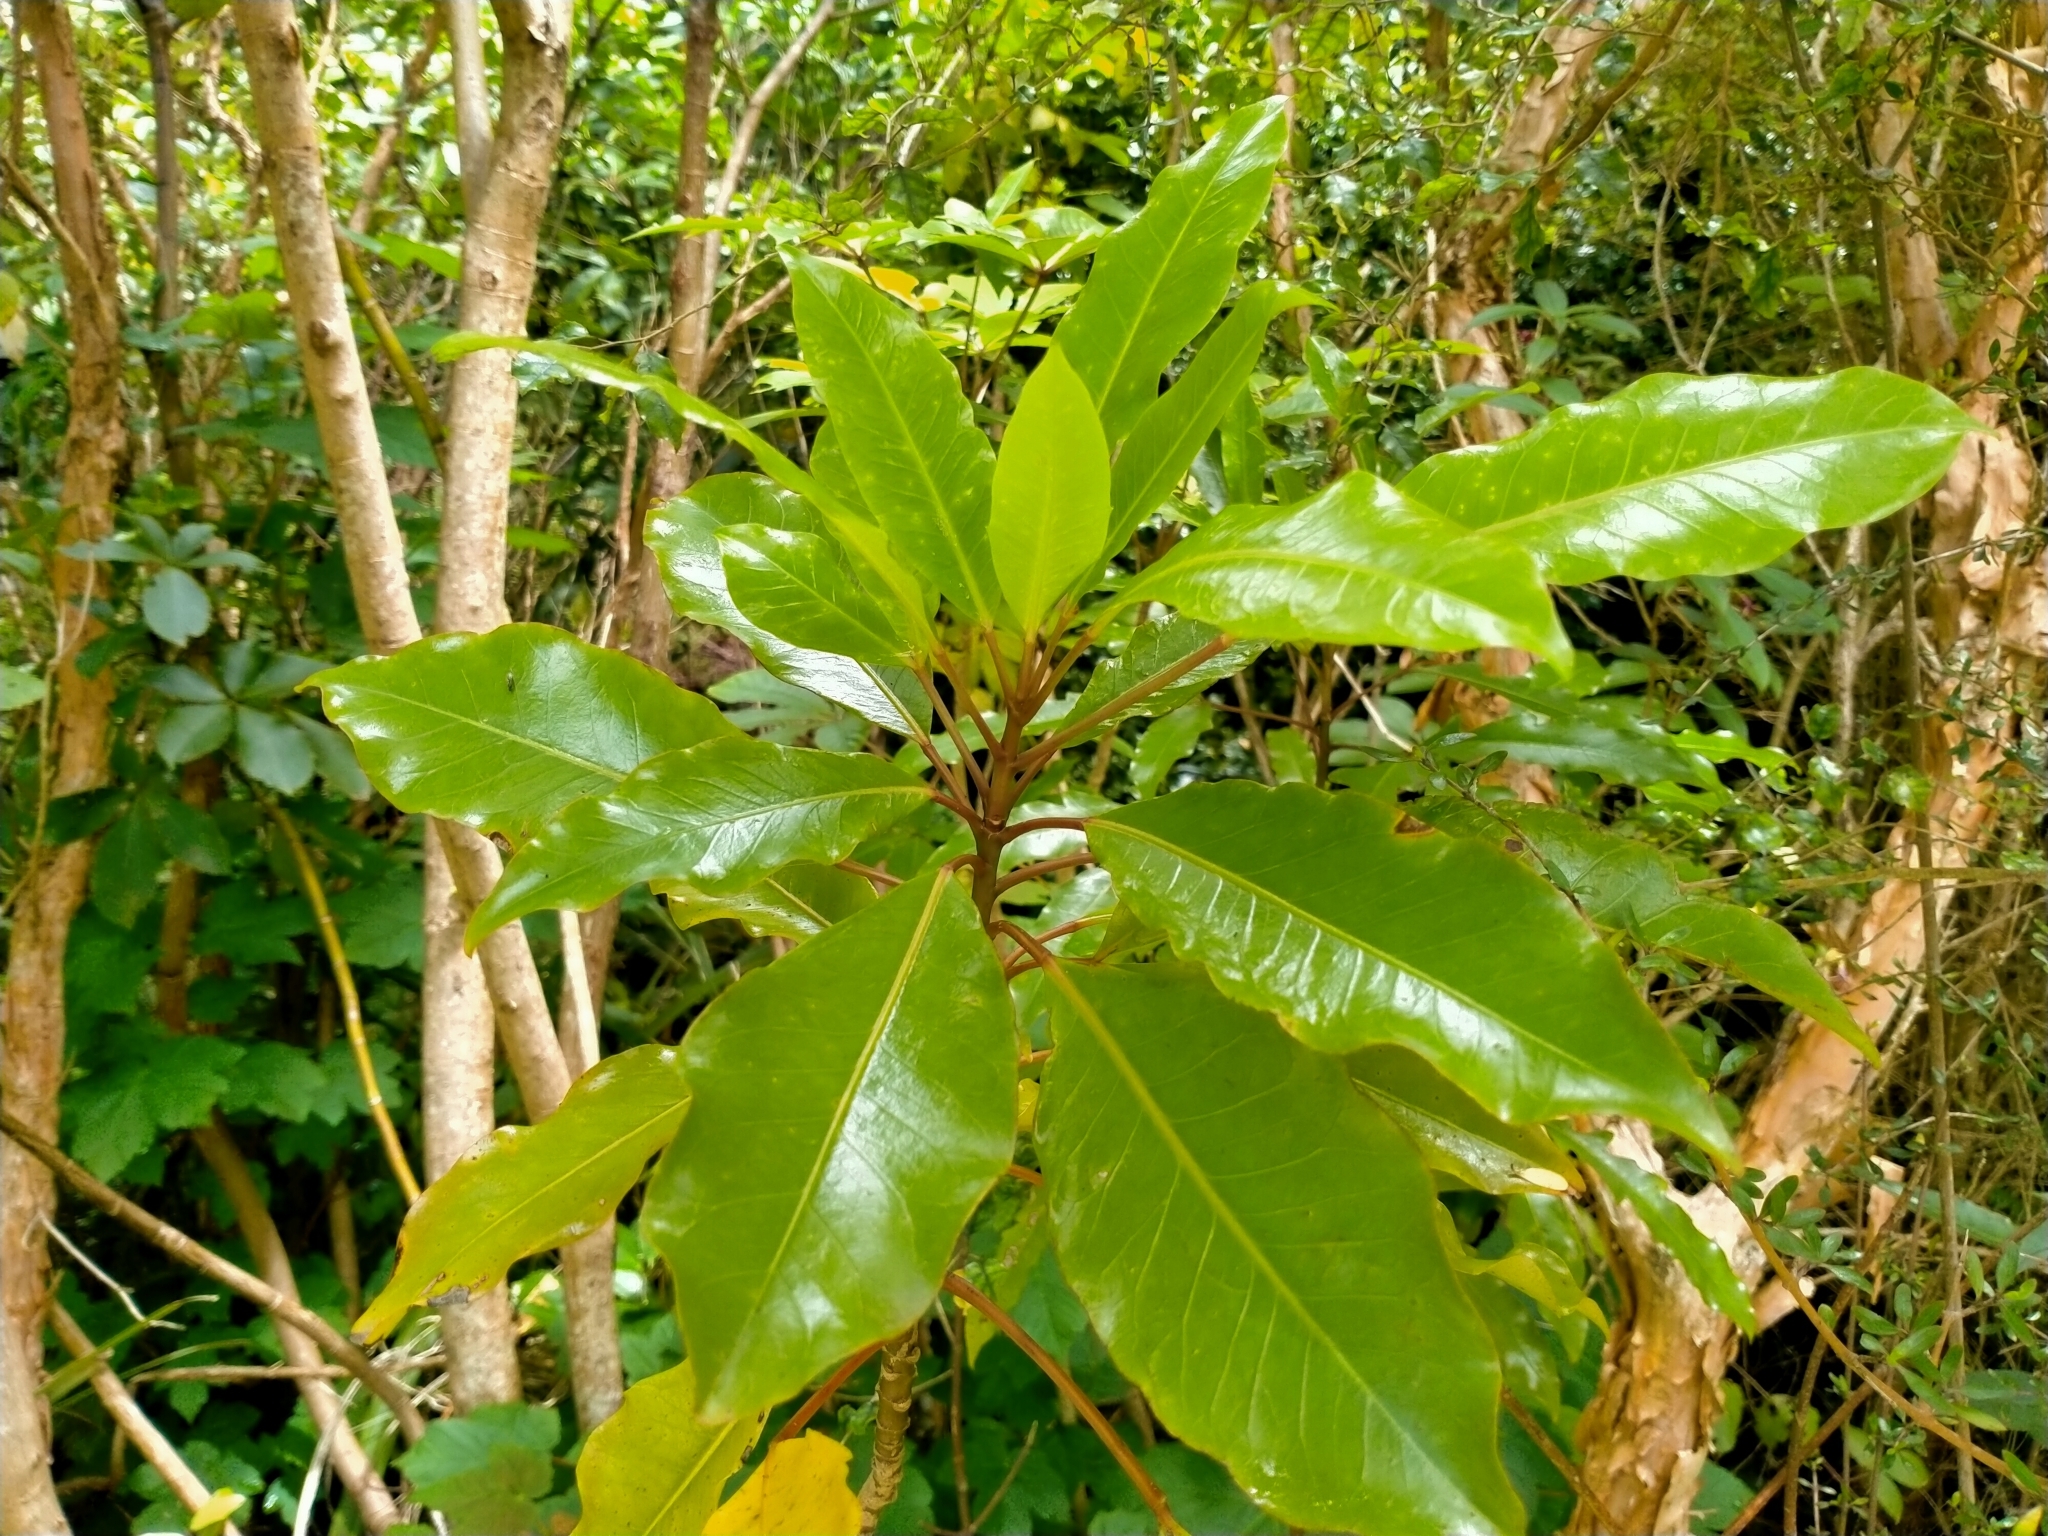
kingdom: Plantae
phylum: Tracheophyta
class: Magnoliopsida
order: Apiales
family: Araliaceae
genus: Raukaua
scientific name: Raukaua edgerleyi
